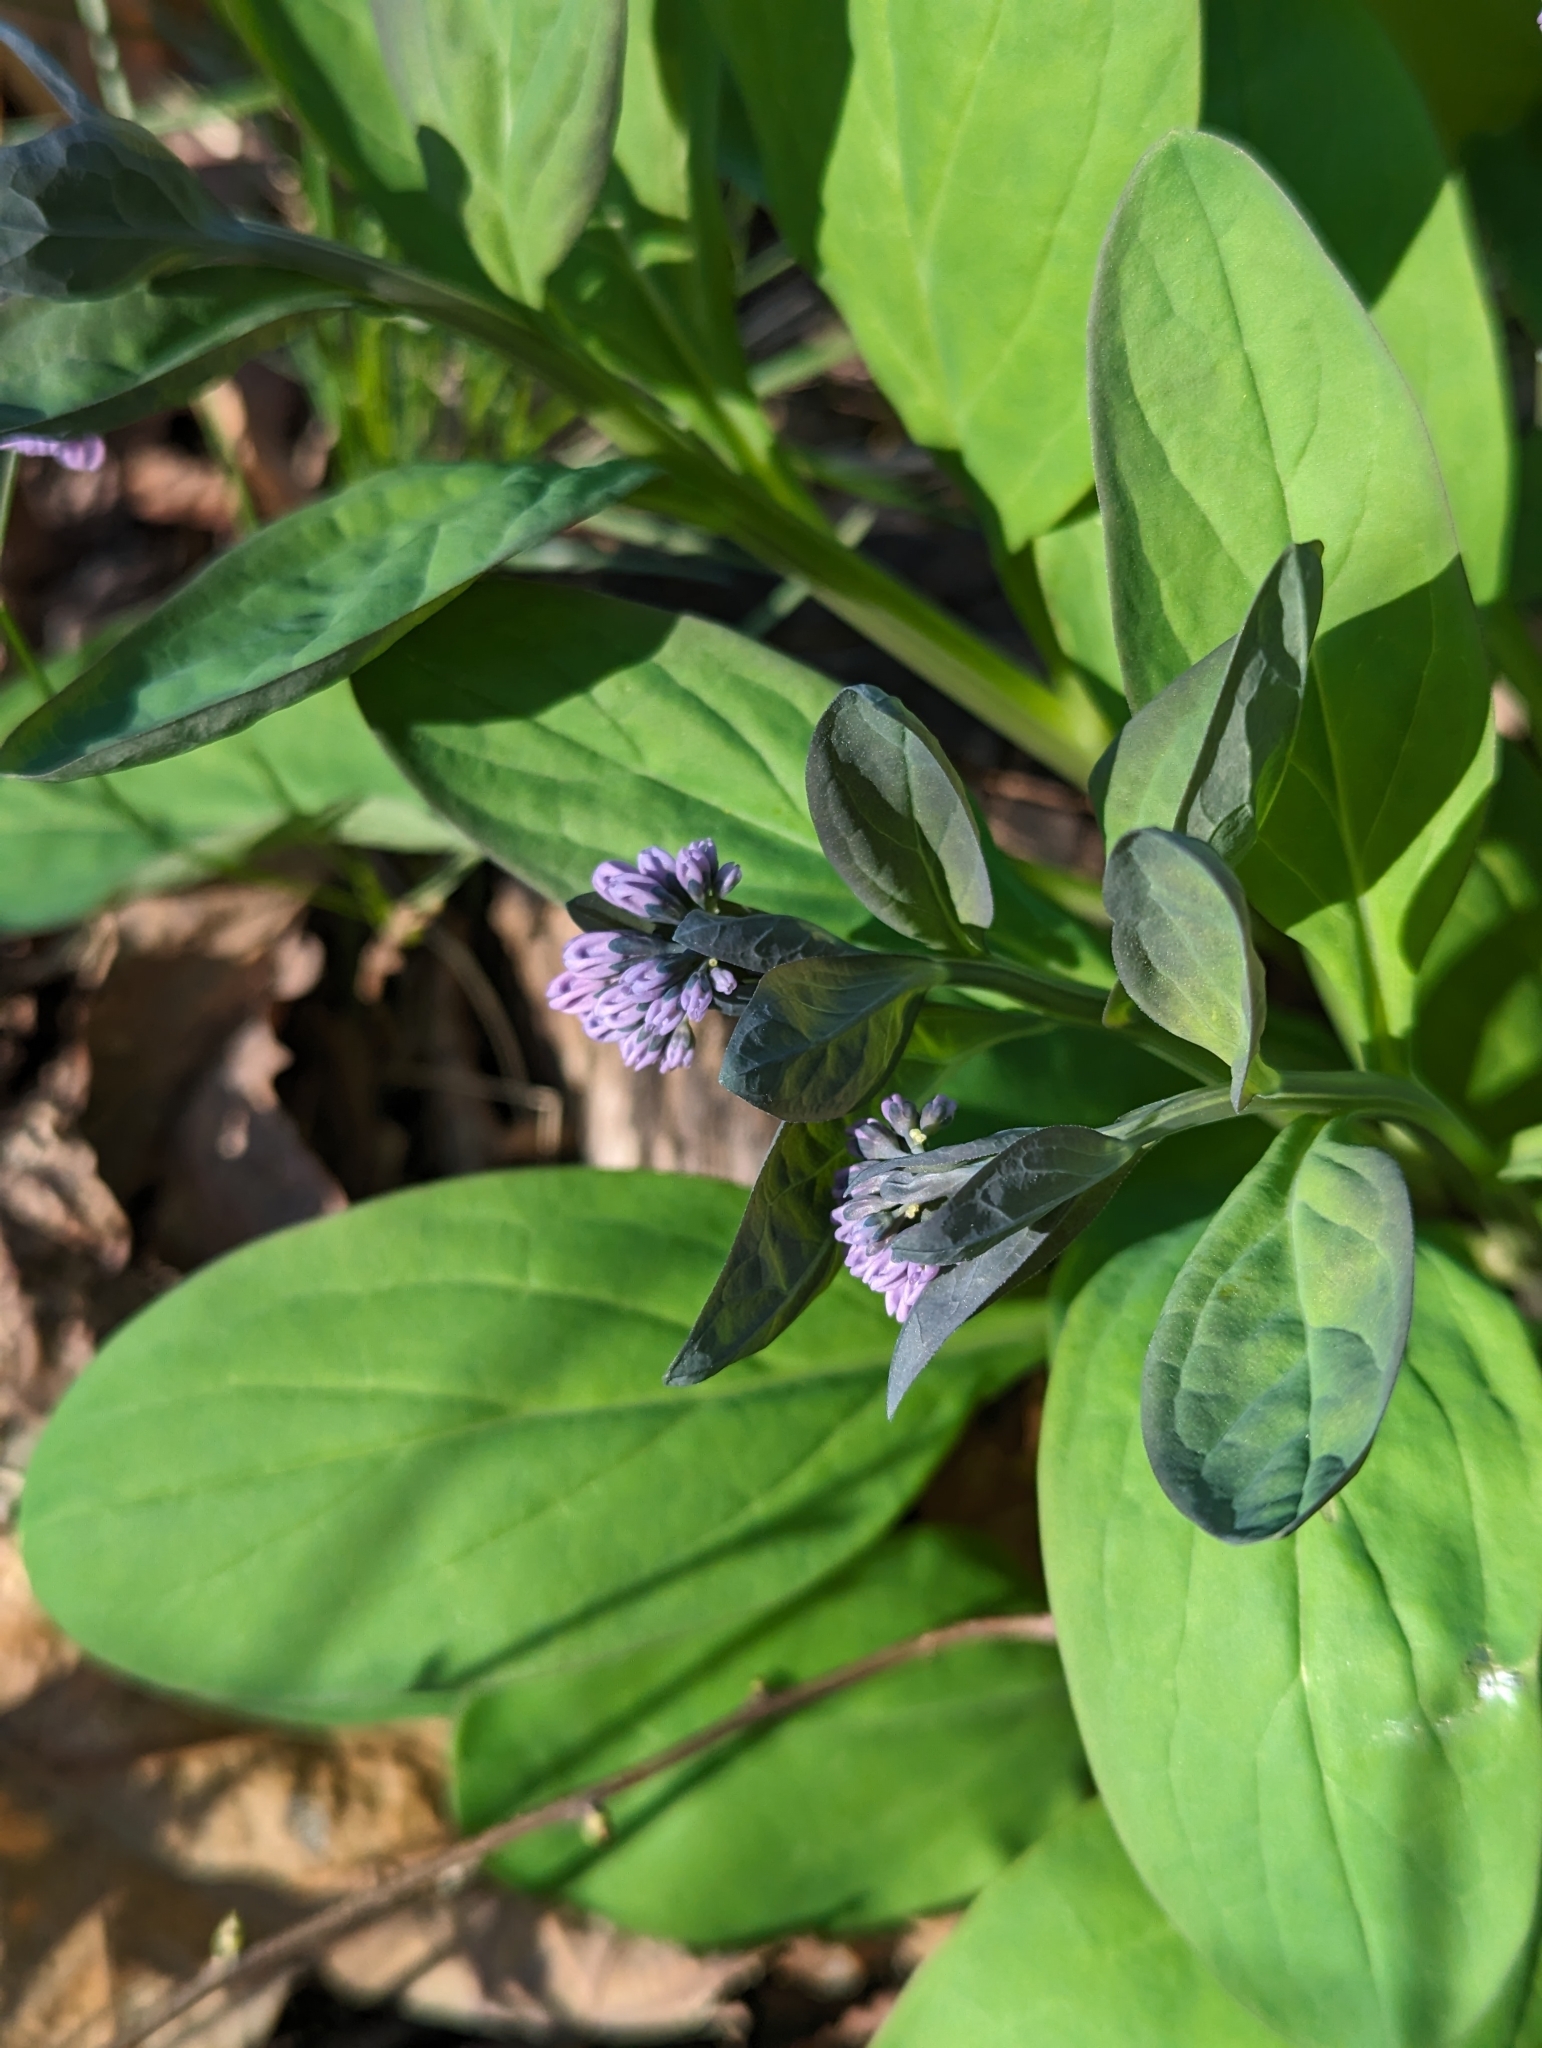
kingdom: Plantae
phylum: Tracheophyta
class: Magnoliopsida
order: Boraginales
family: Boraginaceae
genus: Mertensia
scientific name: Mertensia virginica
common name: Virginia bluebells
